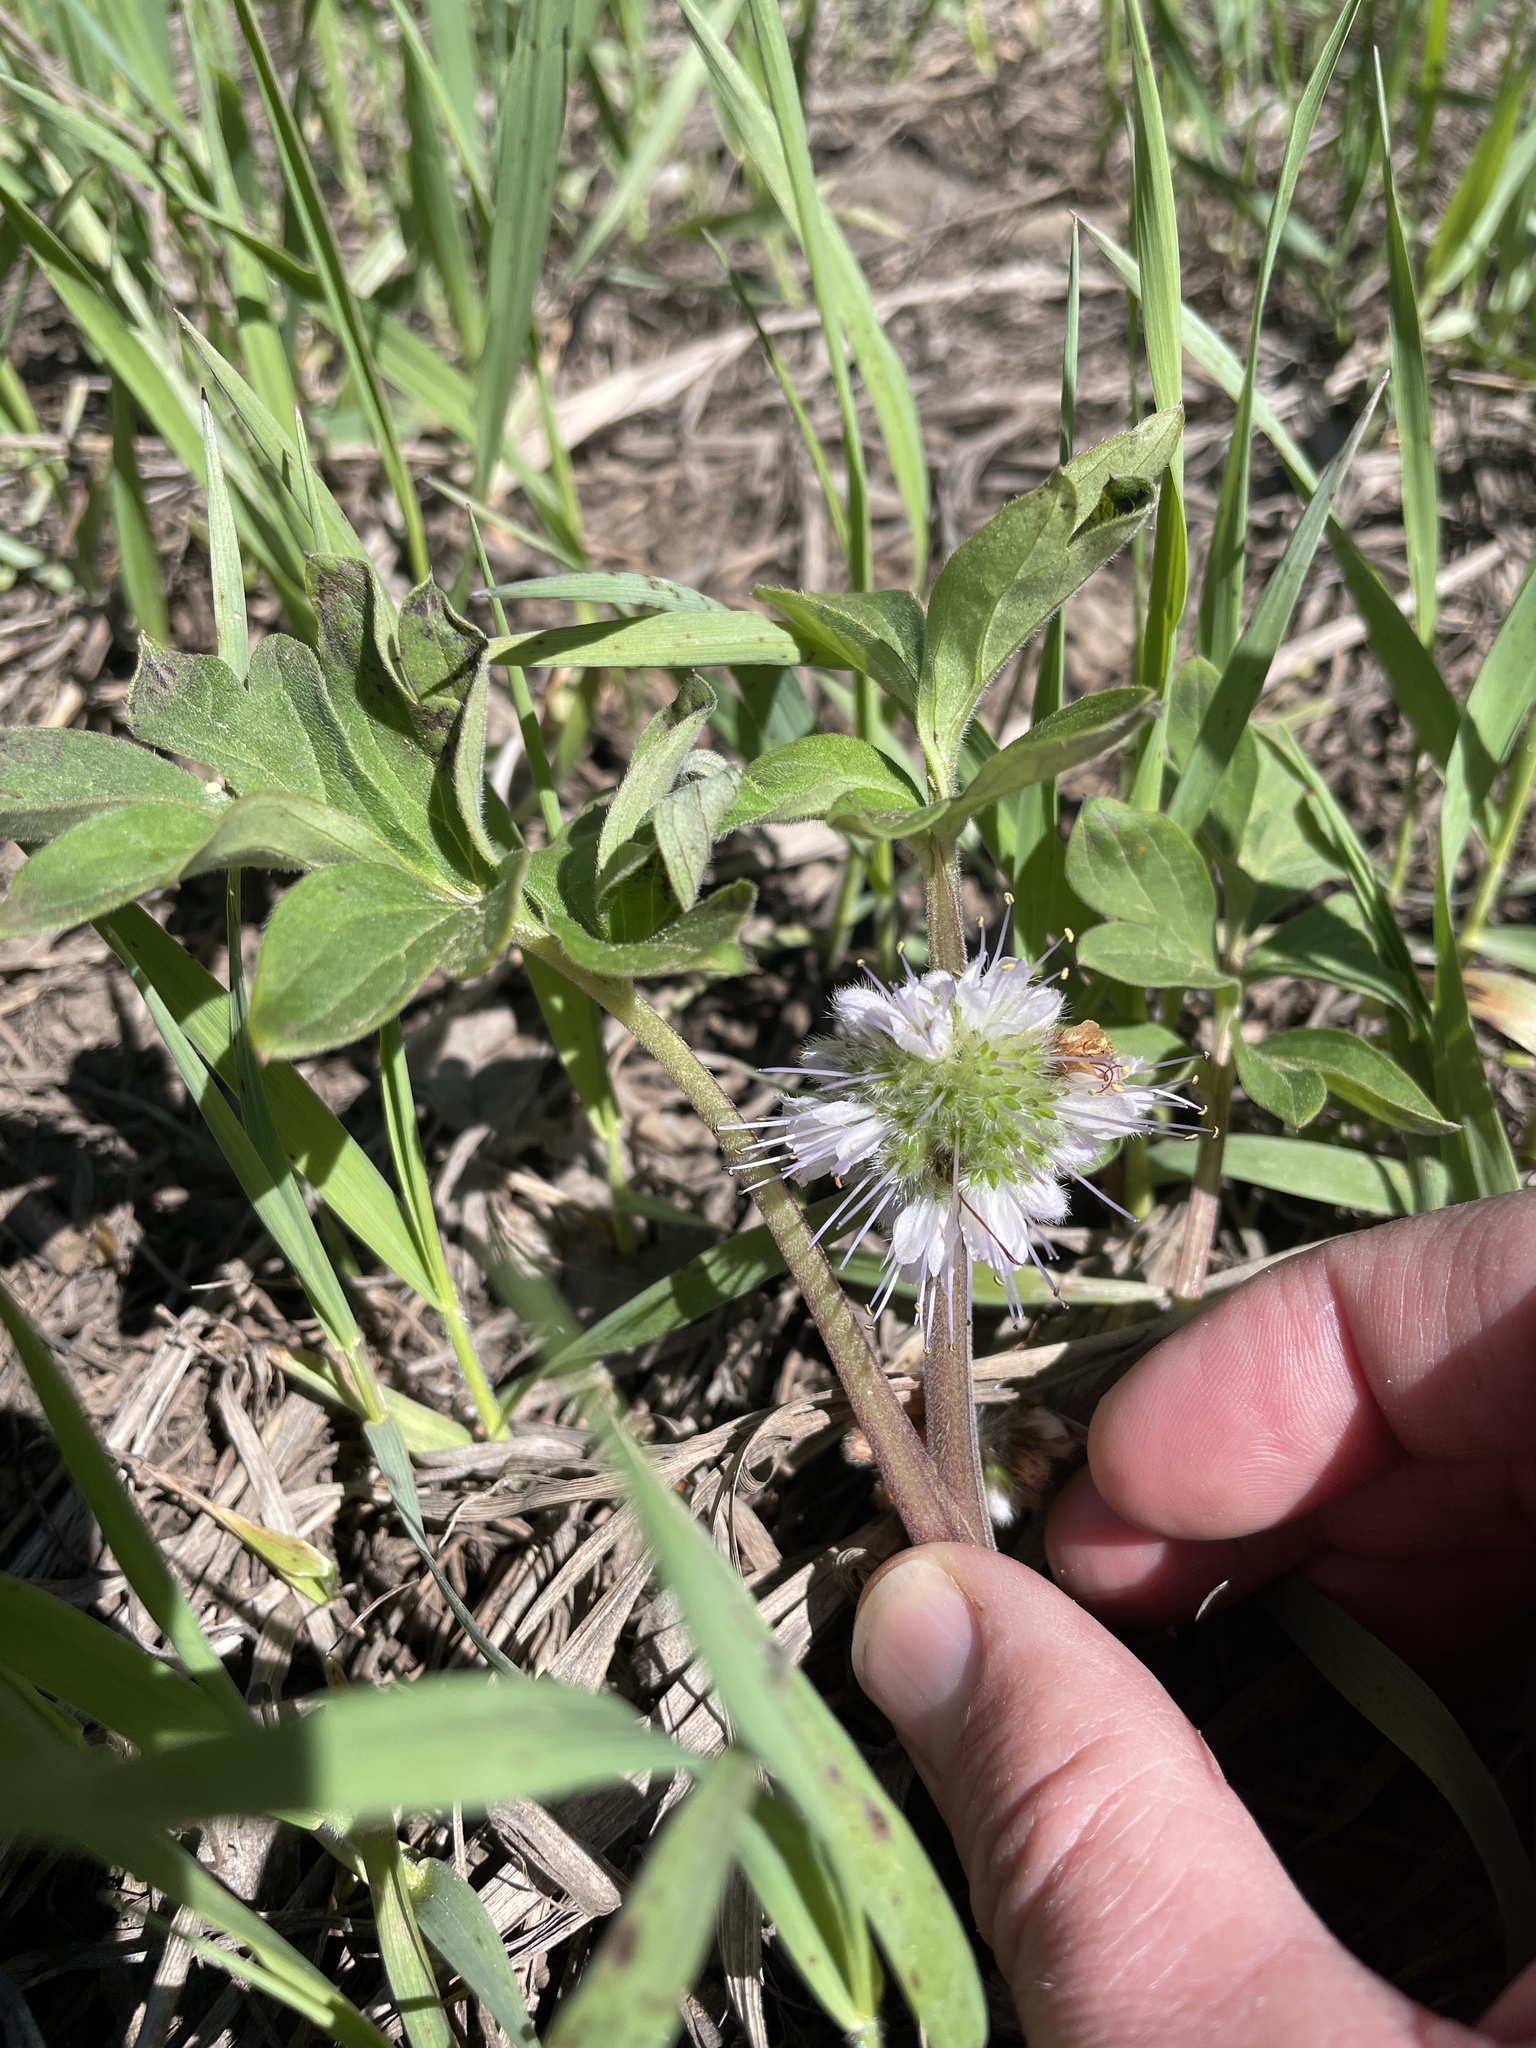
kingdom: Plantae
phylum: Tracheophyta
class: Magnoliopsida
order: Boraginales
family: Hydrophyllaceae
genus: Hydrophyllum
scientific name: Hydrophyllum capitatum
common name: Woollen-breeches
